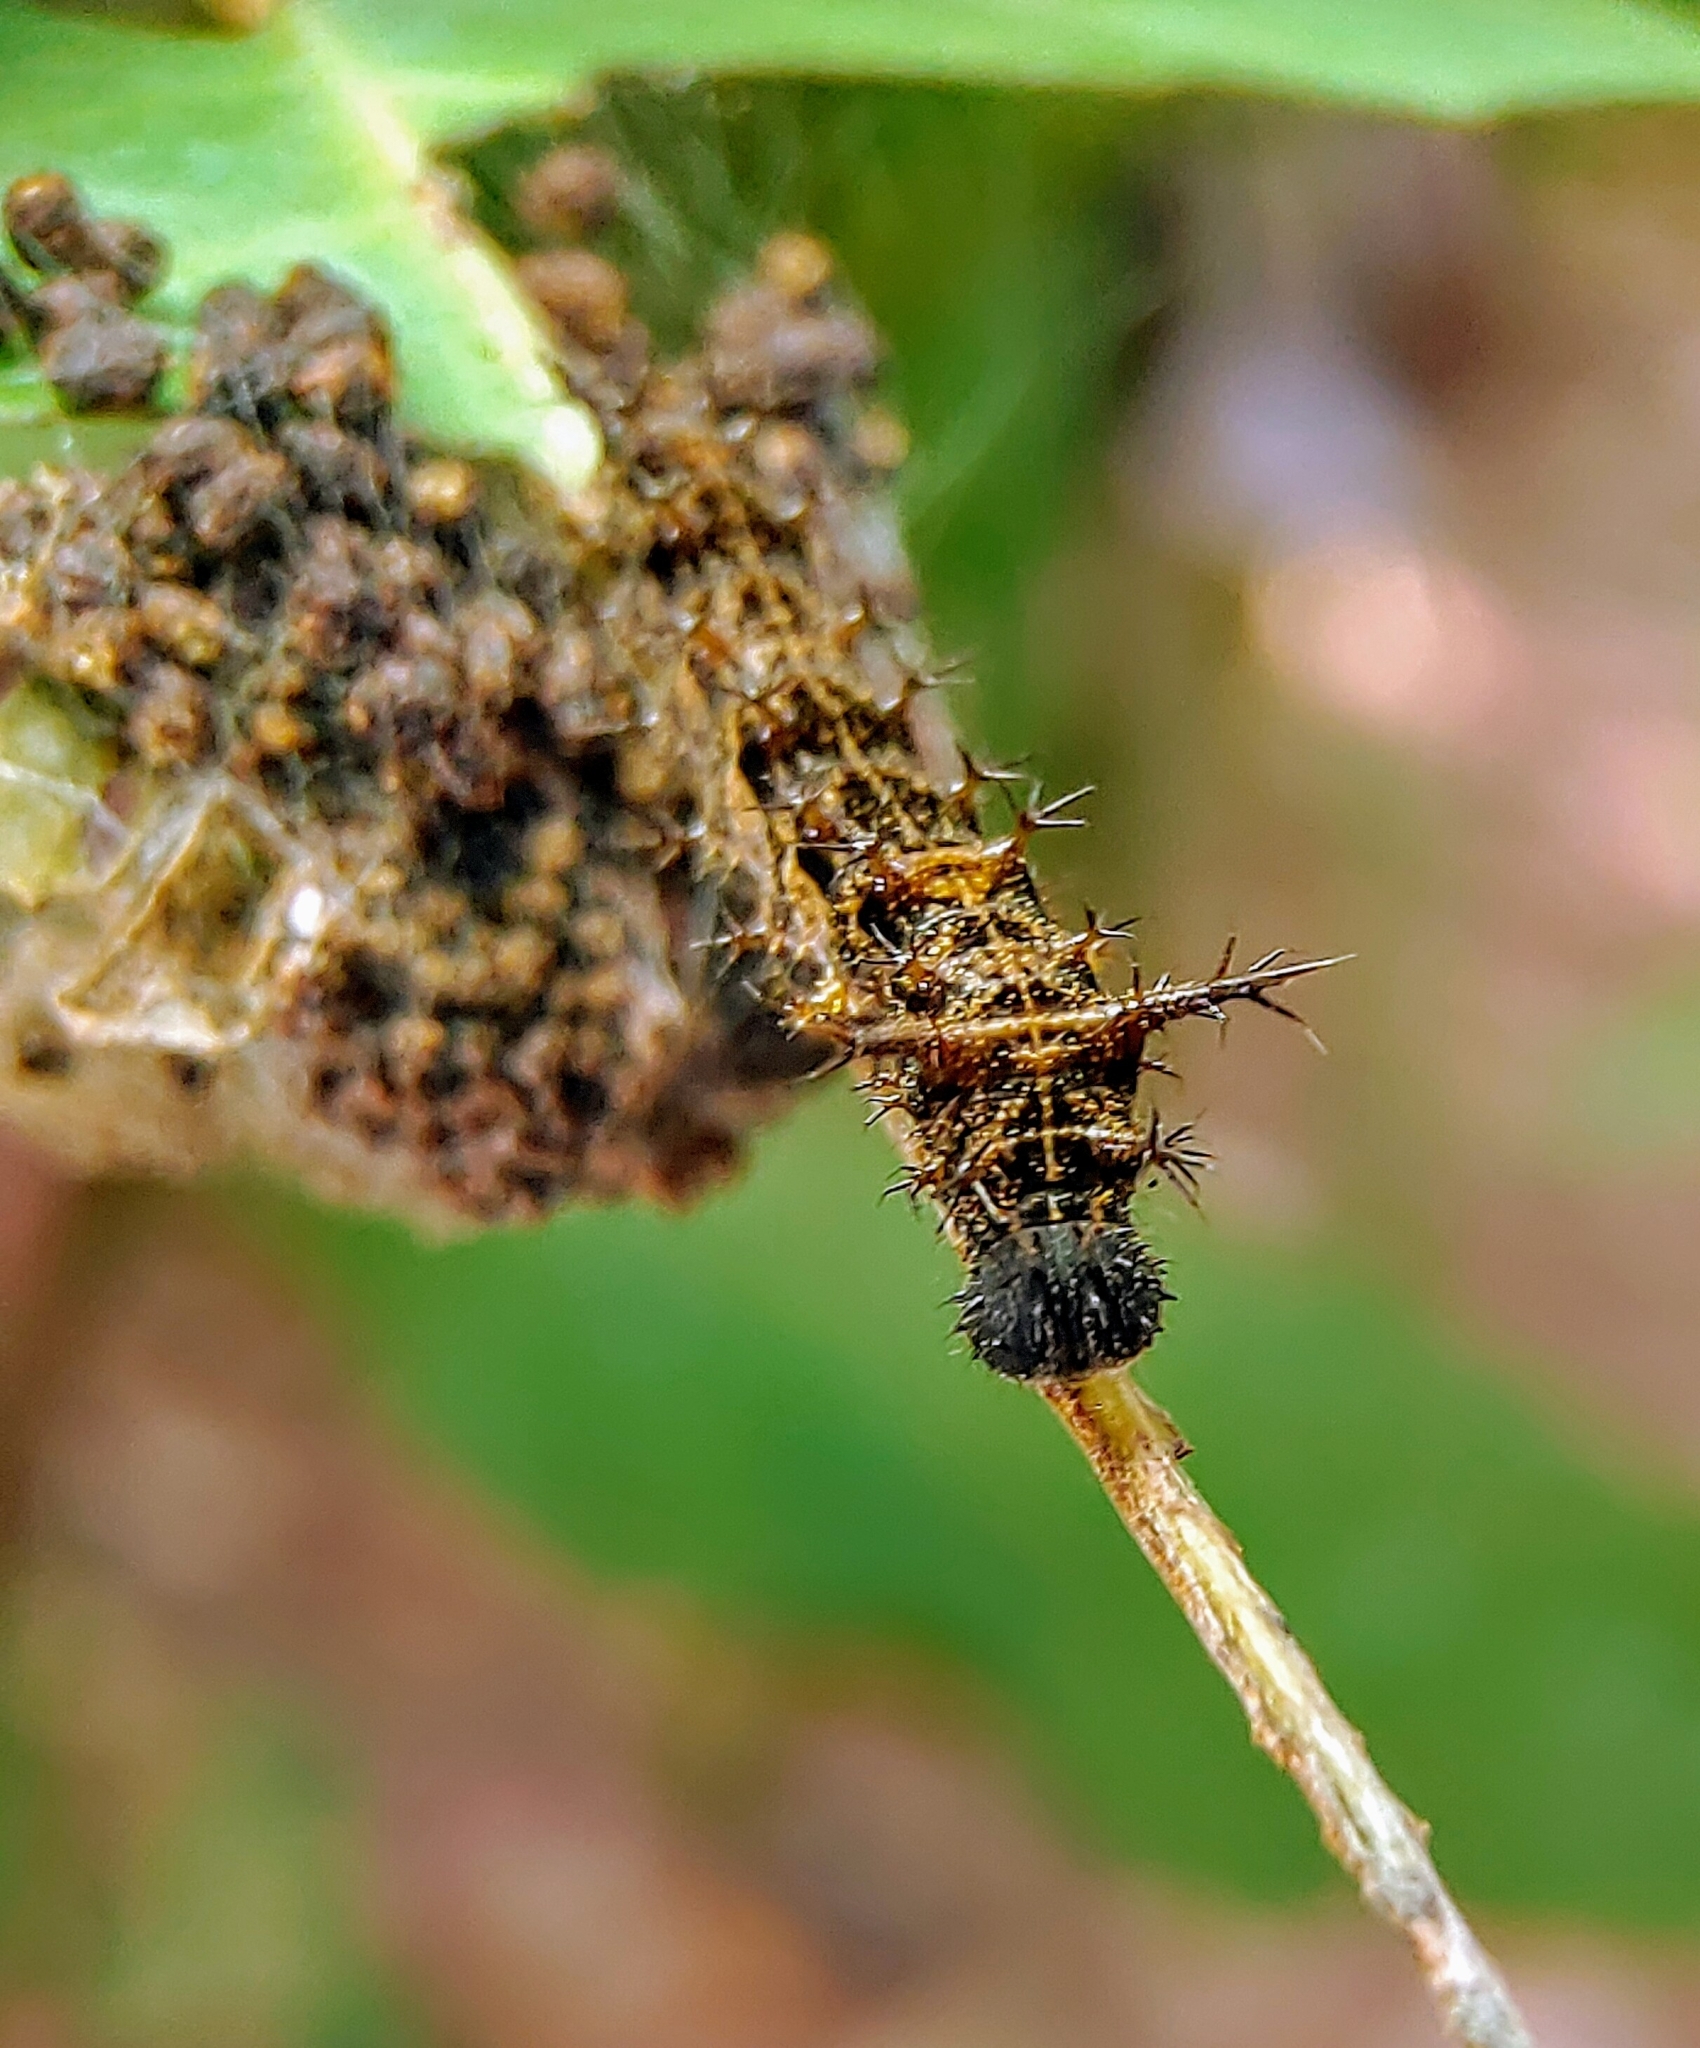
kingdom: Animalia
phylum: Arthropoda
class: Insecta
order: Lepidoptera
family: Nymphalidae
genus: Lebadea
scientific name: Lebadea martha
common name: Knight
